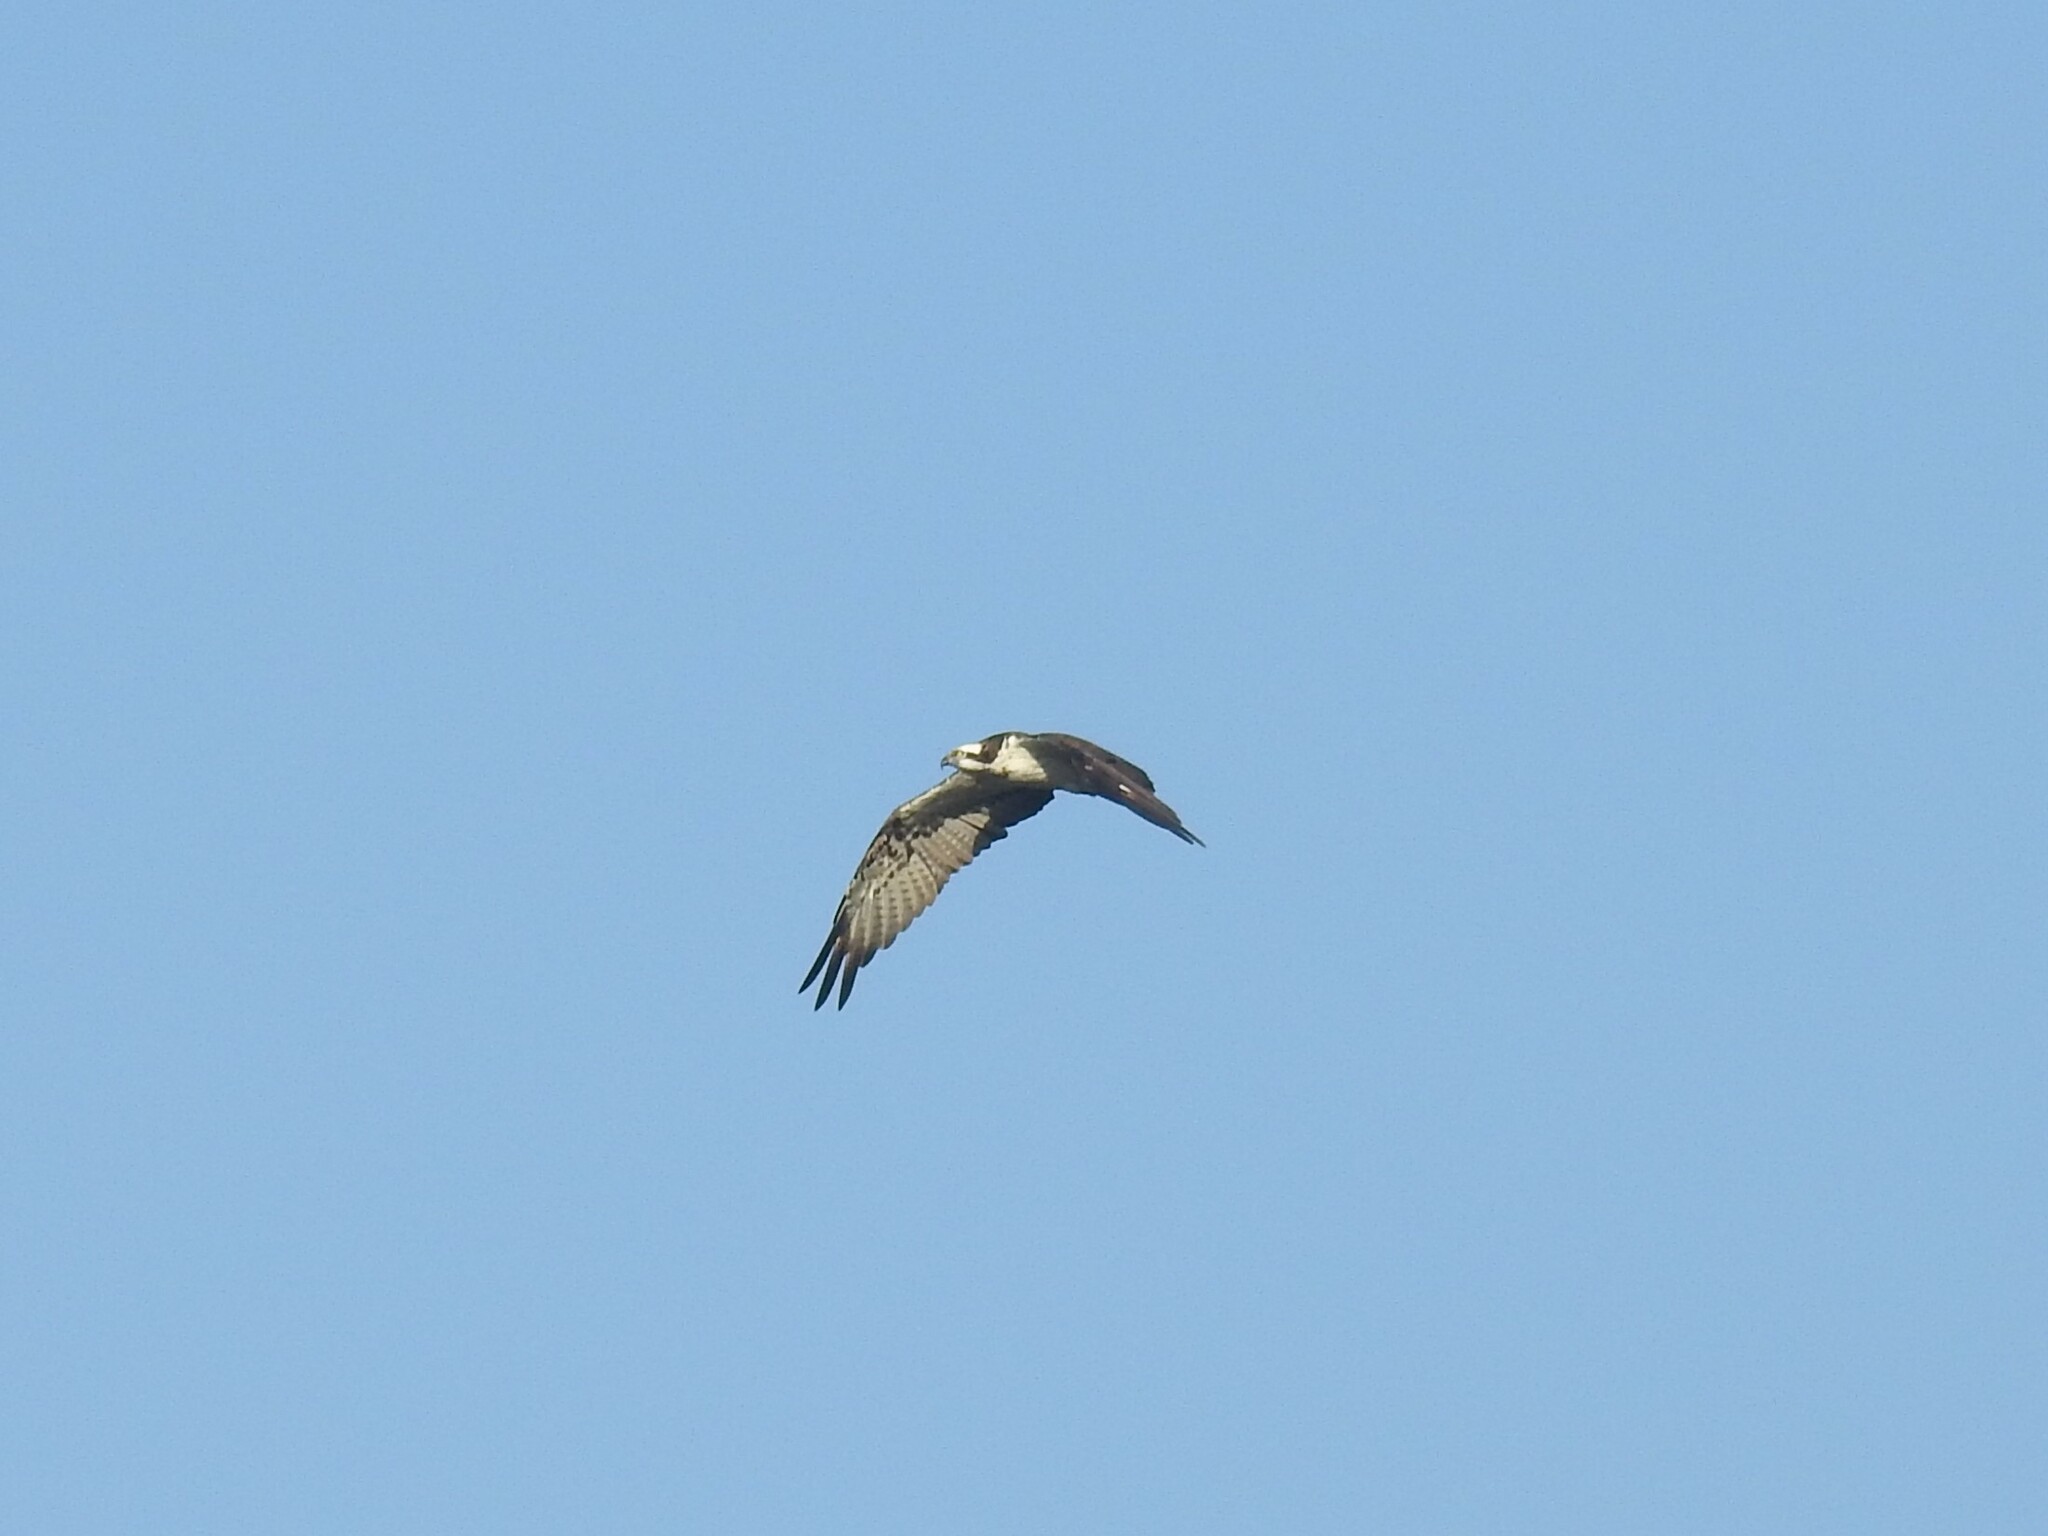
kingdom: Animalia
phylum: Chordata
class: Aves
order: Accipitriformes
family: Pandionidae
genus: Pandion
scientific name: Pandion haliaetus
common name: Osprey
